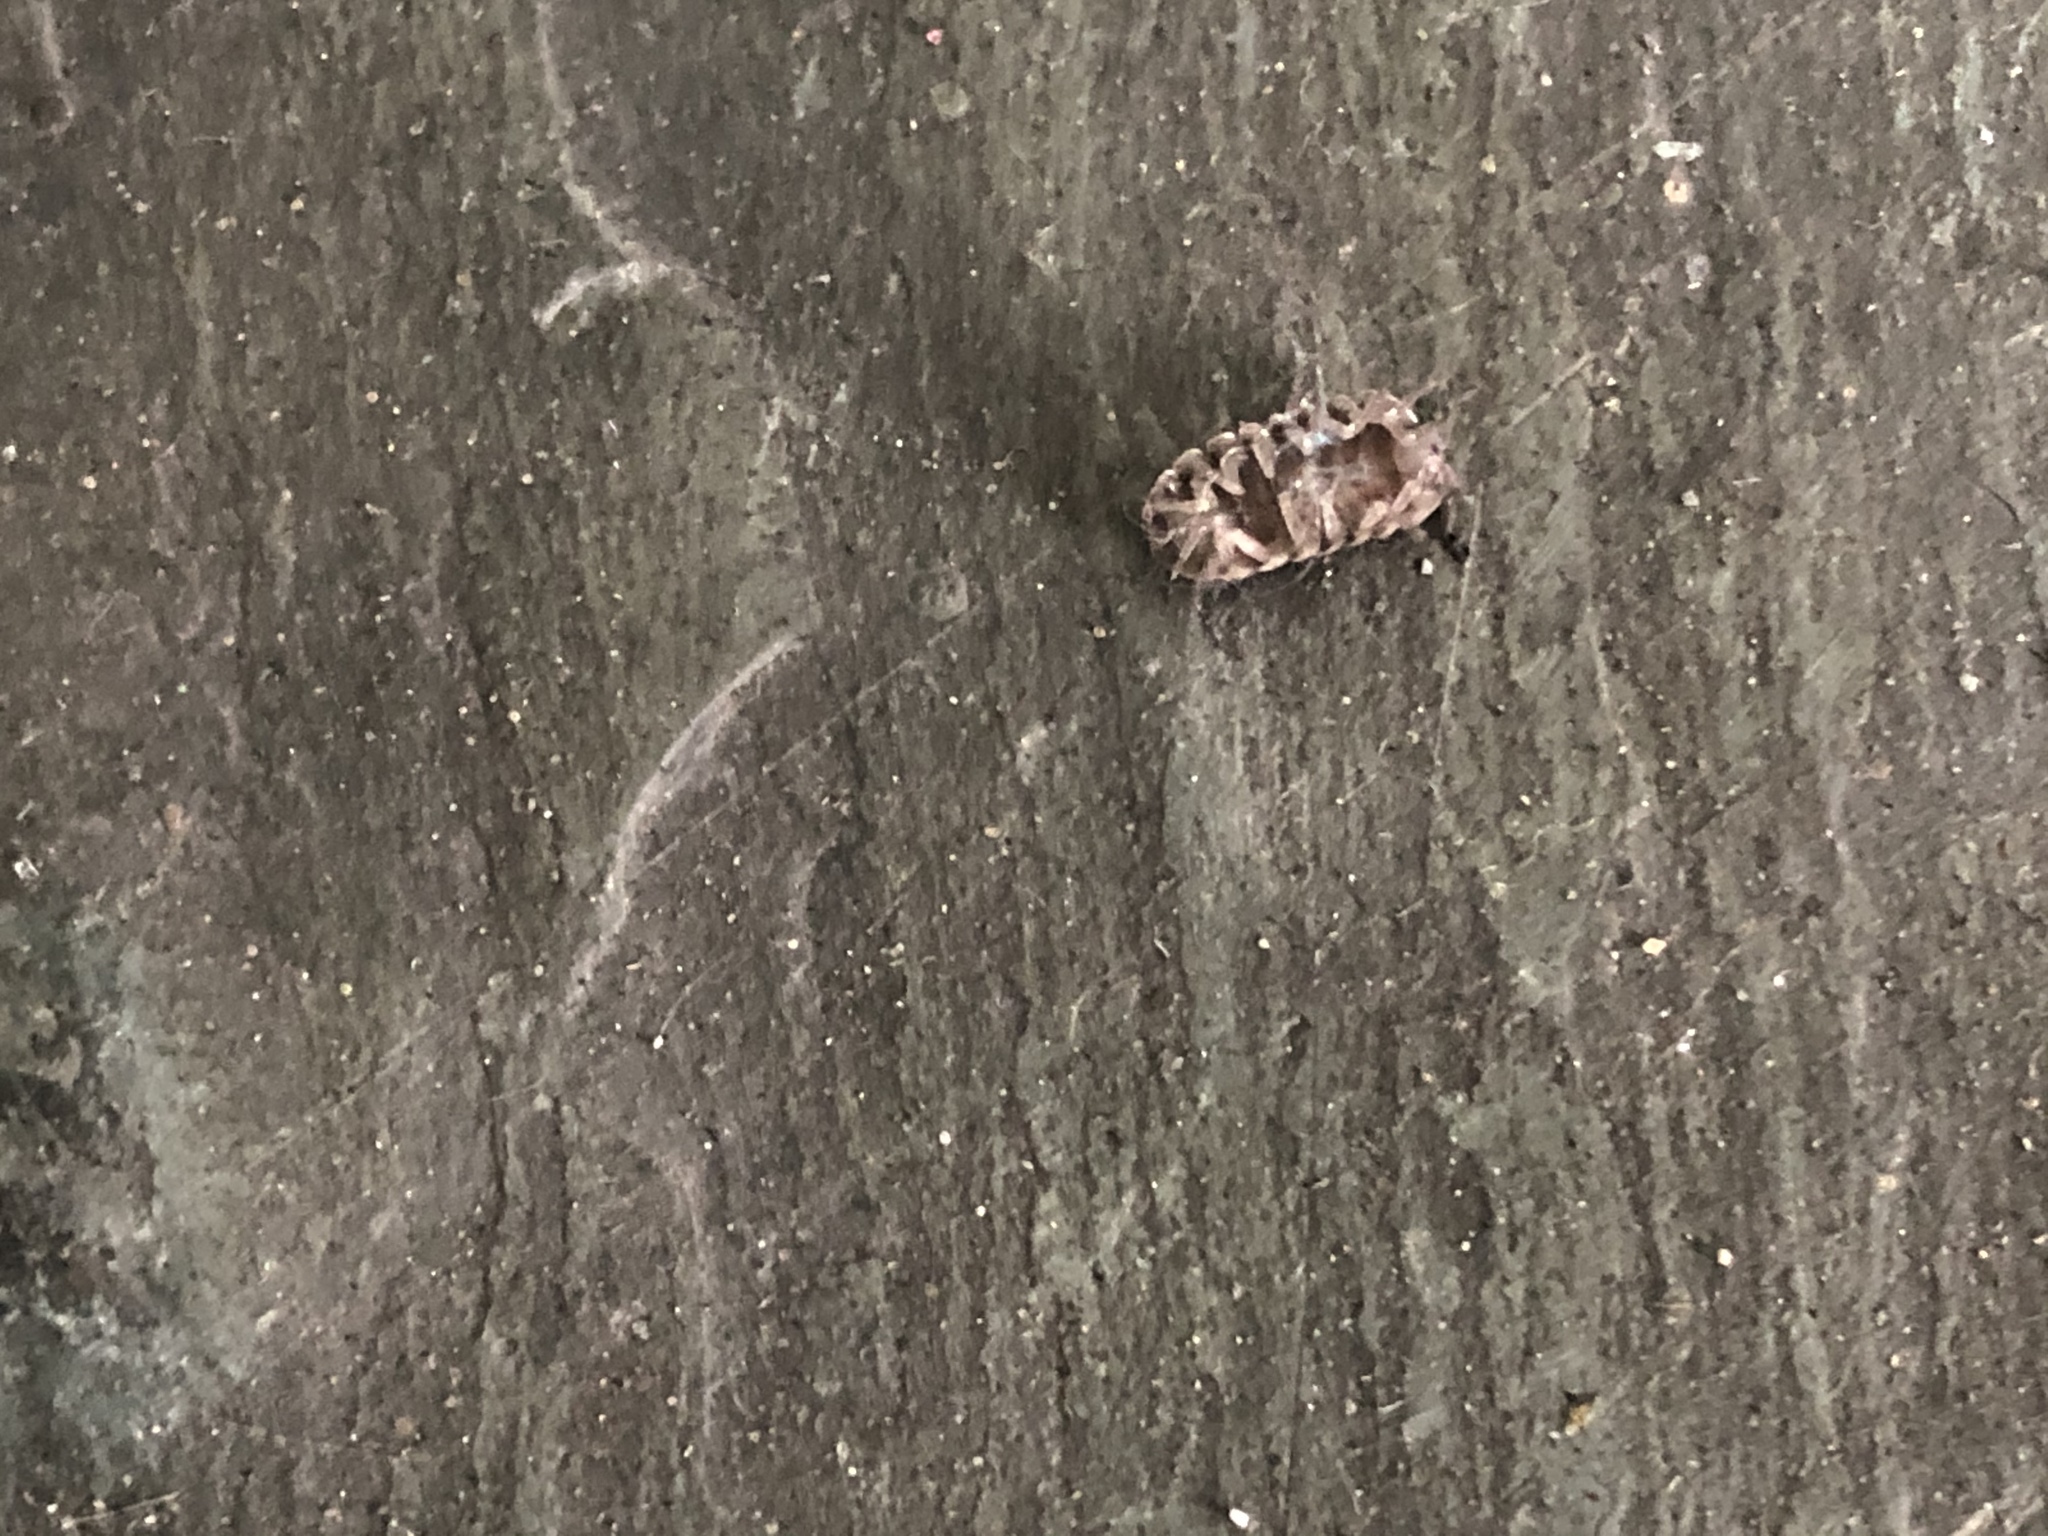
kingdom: Animalia
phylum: Arthropoda
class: Malacostraca
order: Isopoda
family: Armadillidiidae
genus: Armadillidium
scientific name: Armadillidium vulgare
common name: Common pill woodlouse
